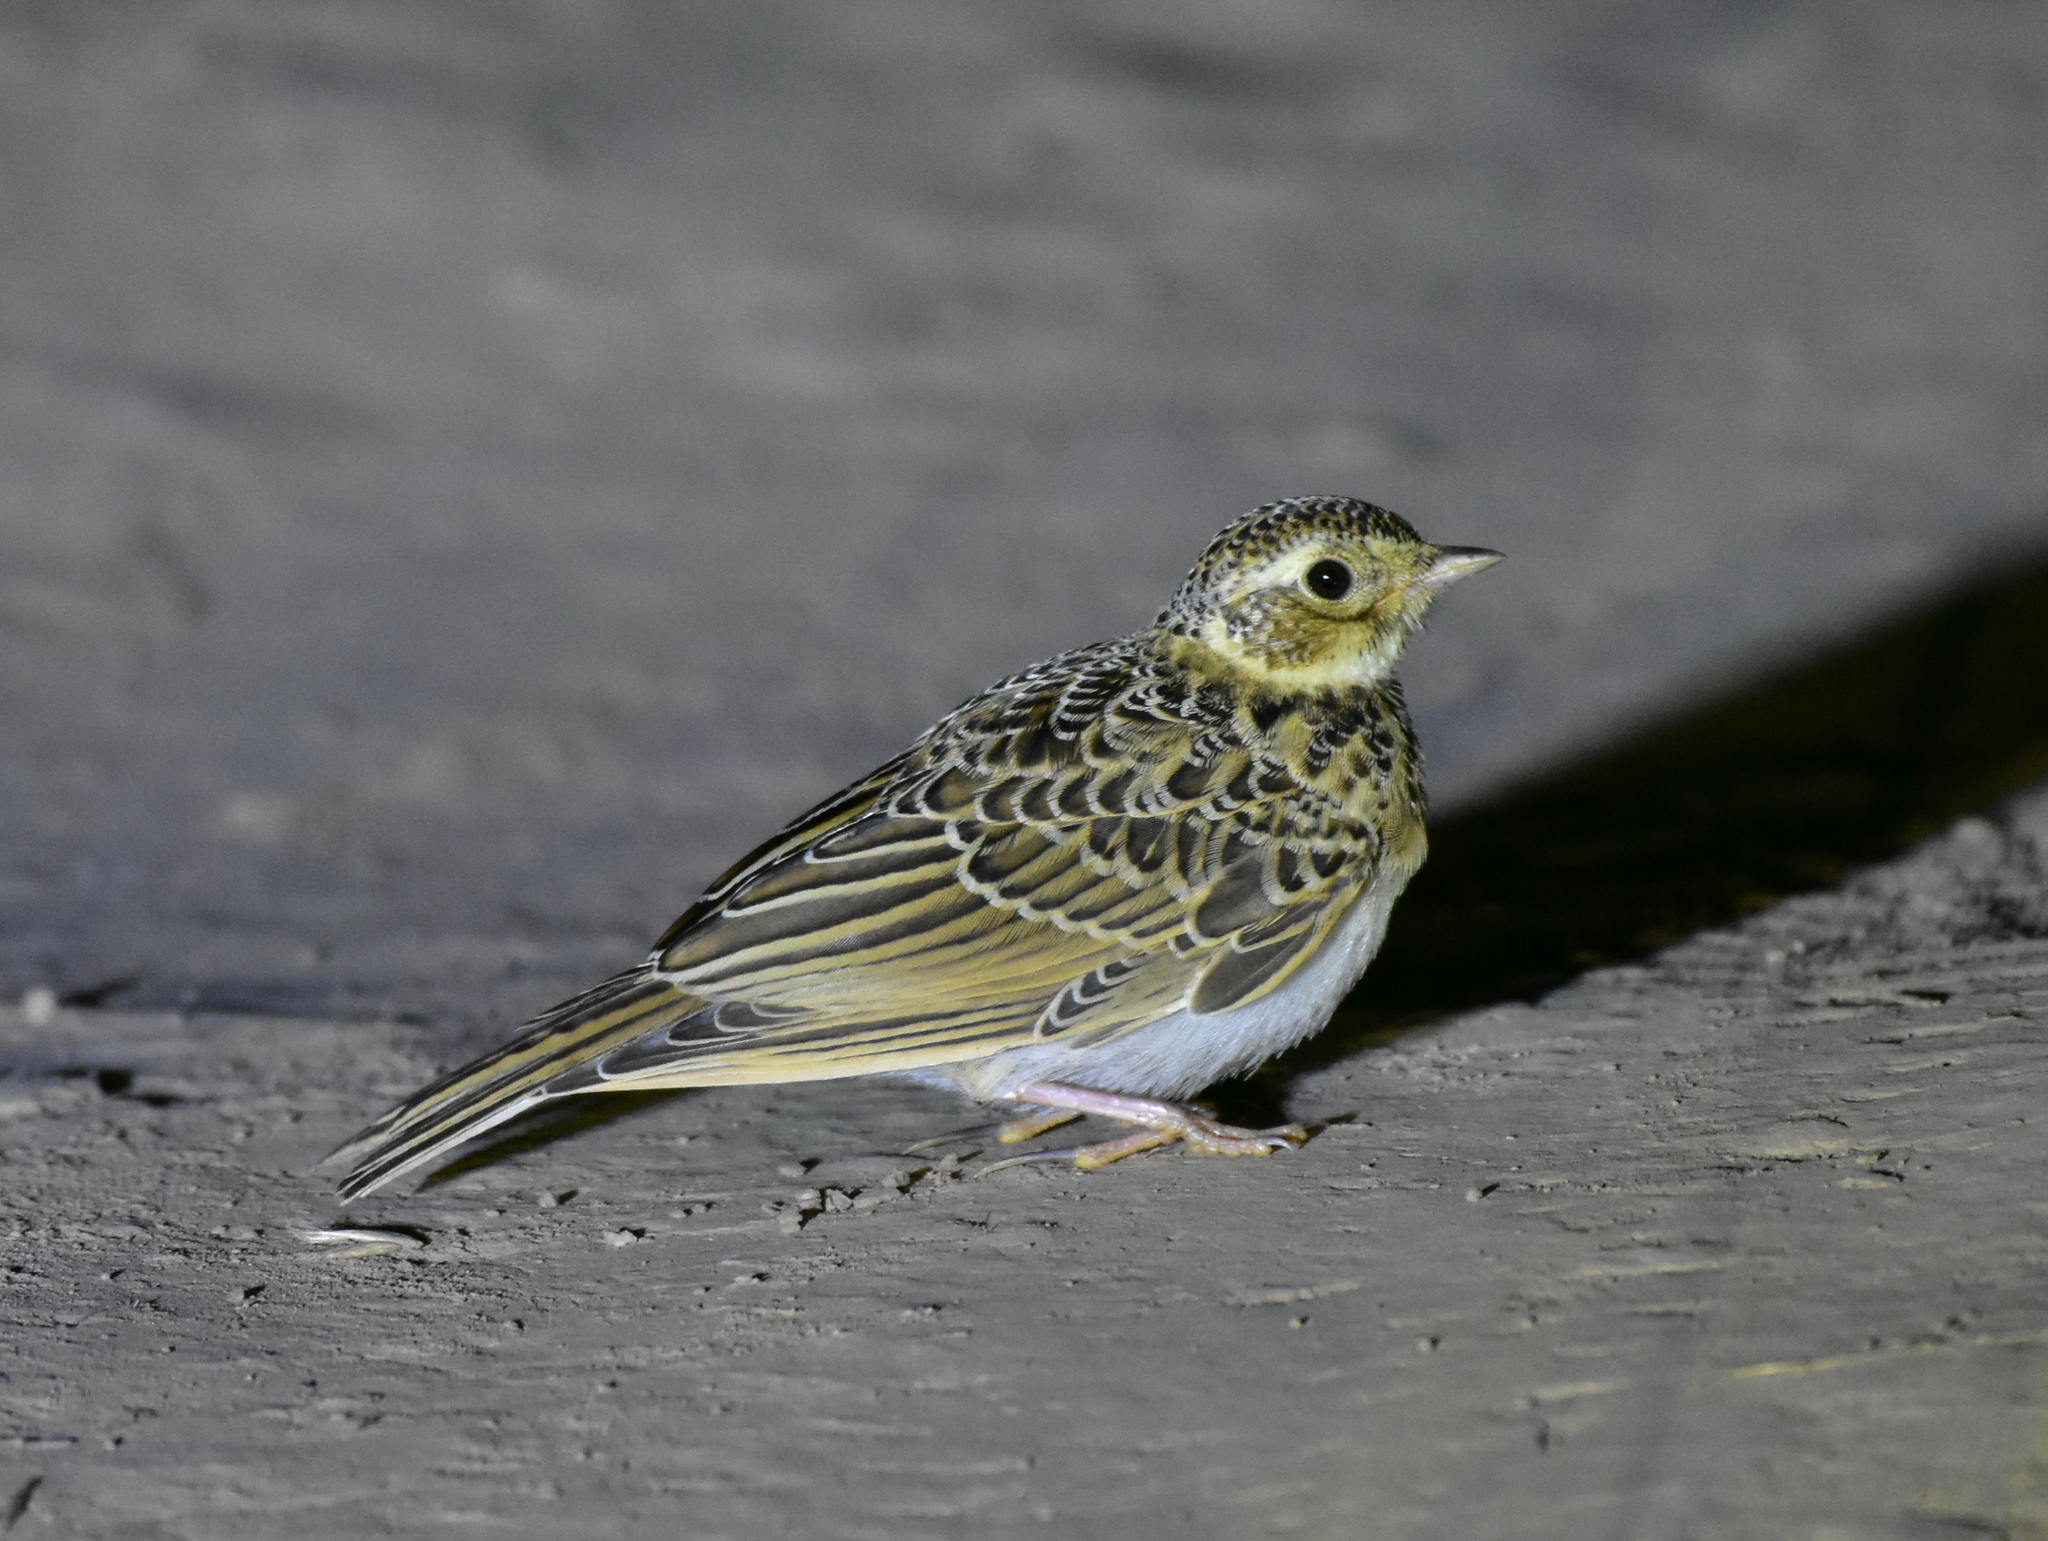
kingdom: Animalia
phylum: Chordata
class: Aves
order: Passeriformes
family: Alaudidae
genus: Alauda
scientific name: Alauda arvensis
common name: Eurasian skylark
